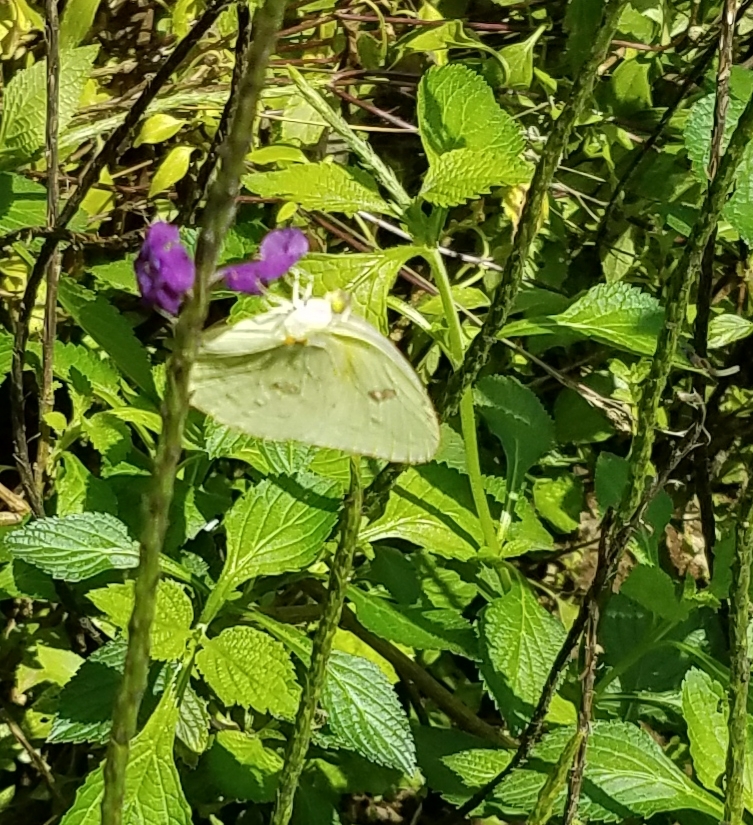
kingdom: Animalia
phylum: Arthropoda
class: Insecta
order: Lepidoptera
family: Pieridae
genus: Phoebis
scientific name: Phoebis marcellina
